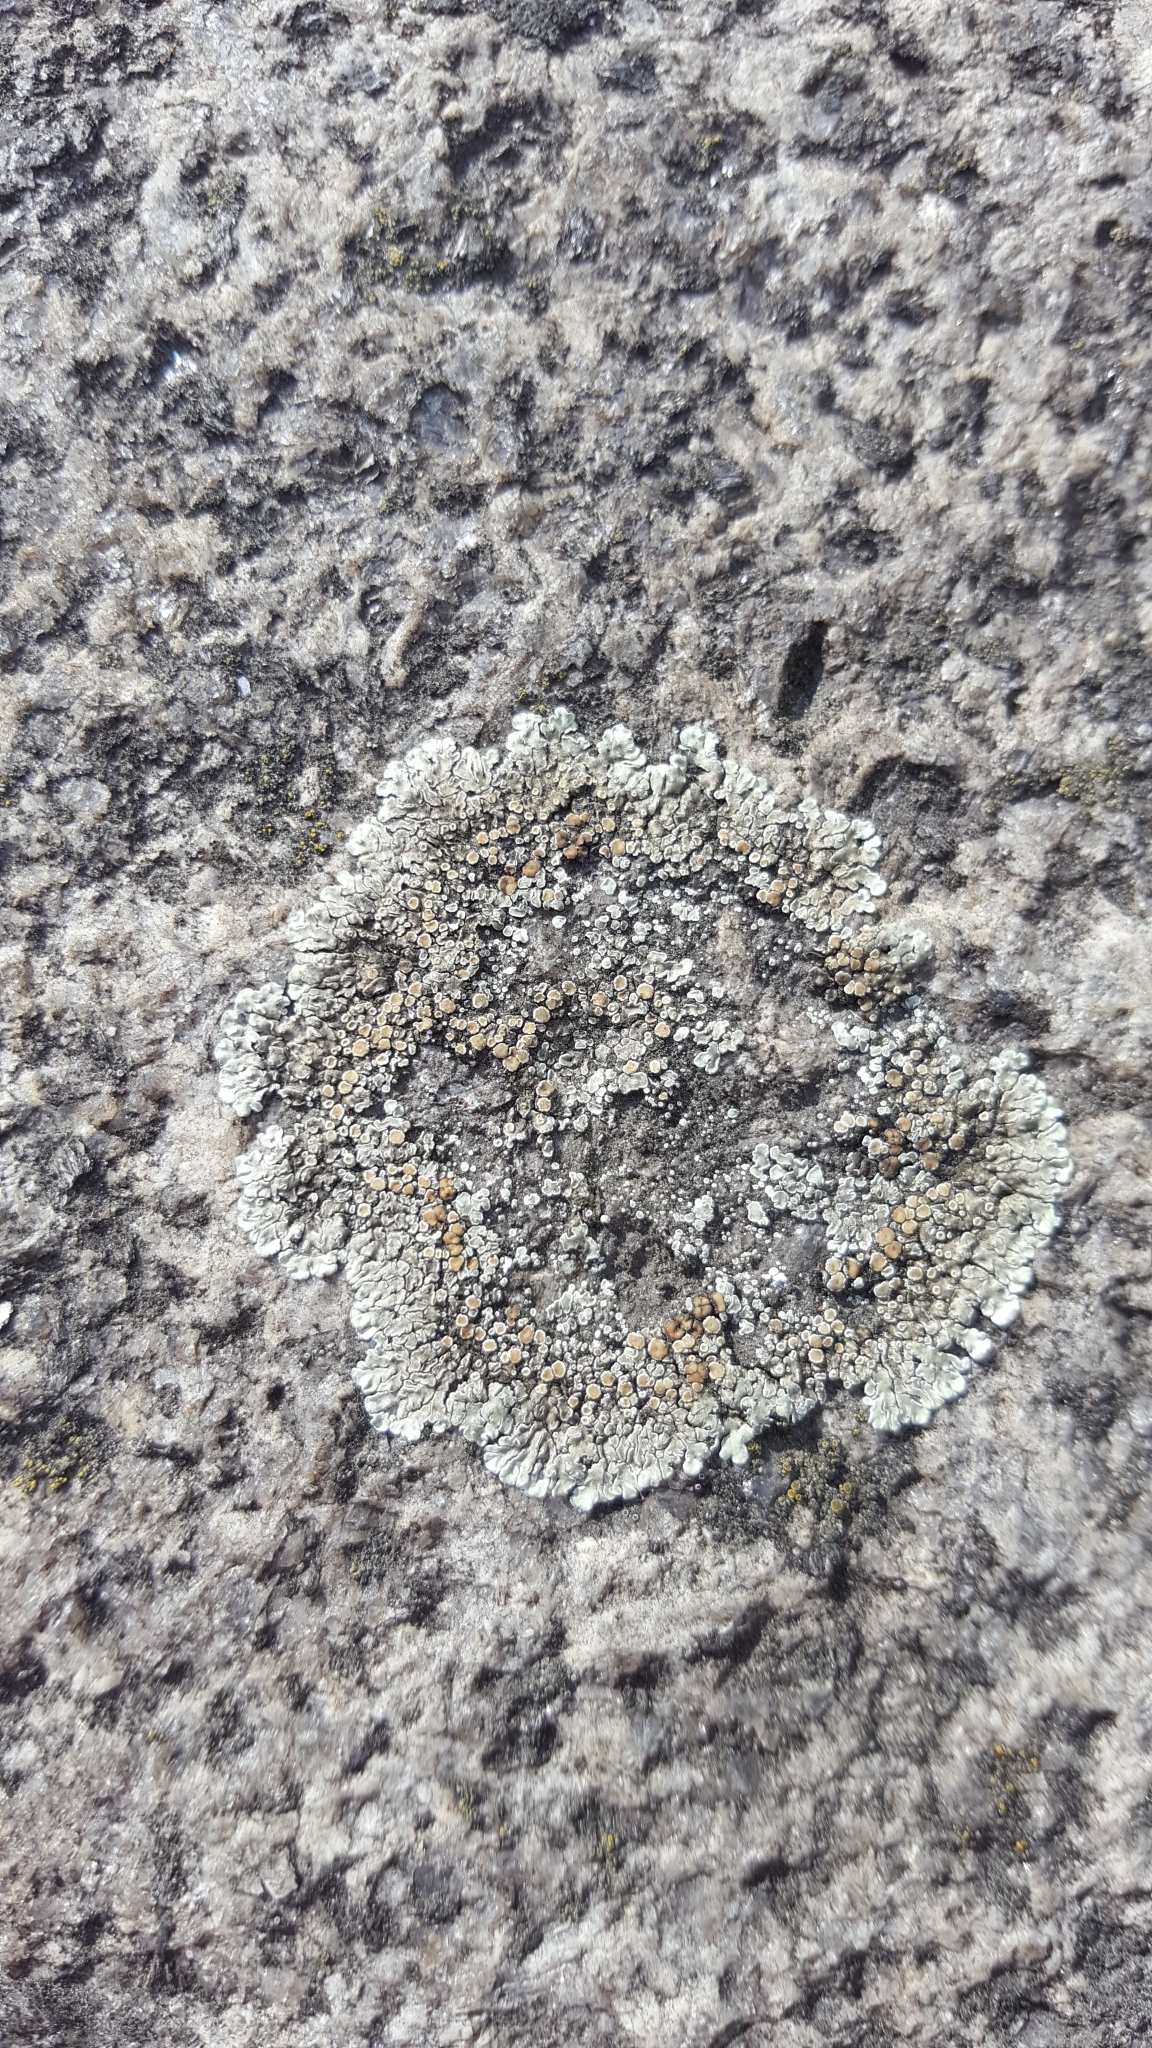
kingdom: Fungi
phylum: Ascomycota
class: Lecanoromycetes
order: Lecanorales
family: Lecanoraceae
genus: Protoparmeliopsis
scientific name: Protoparmeliopsis muralis
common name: Stonewall rim lichen
